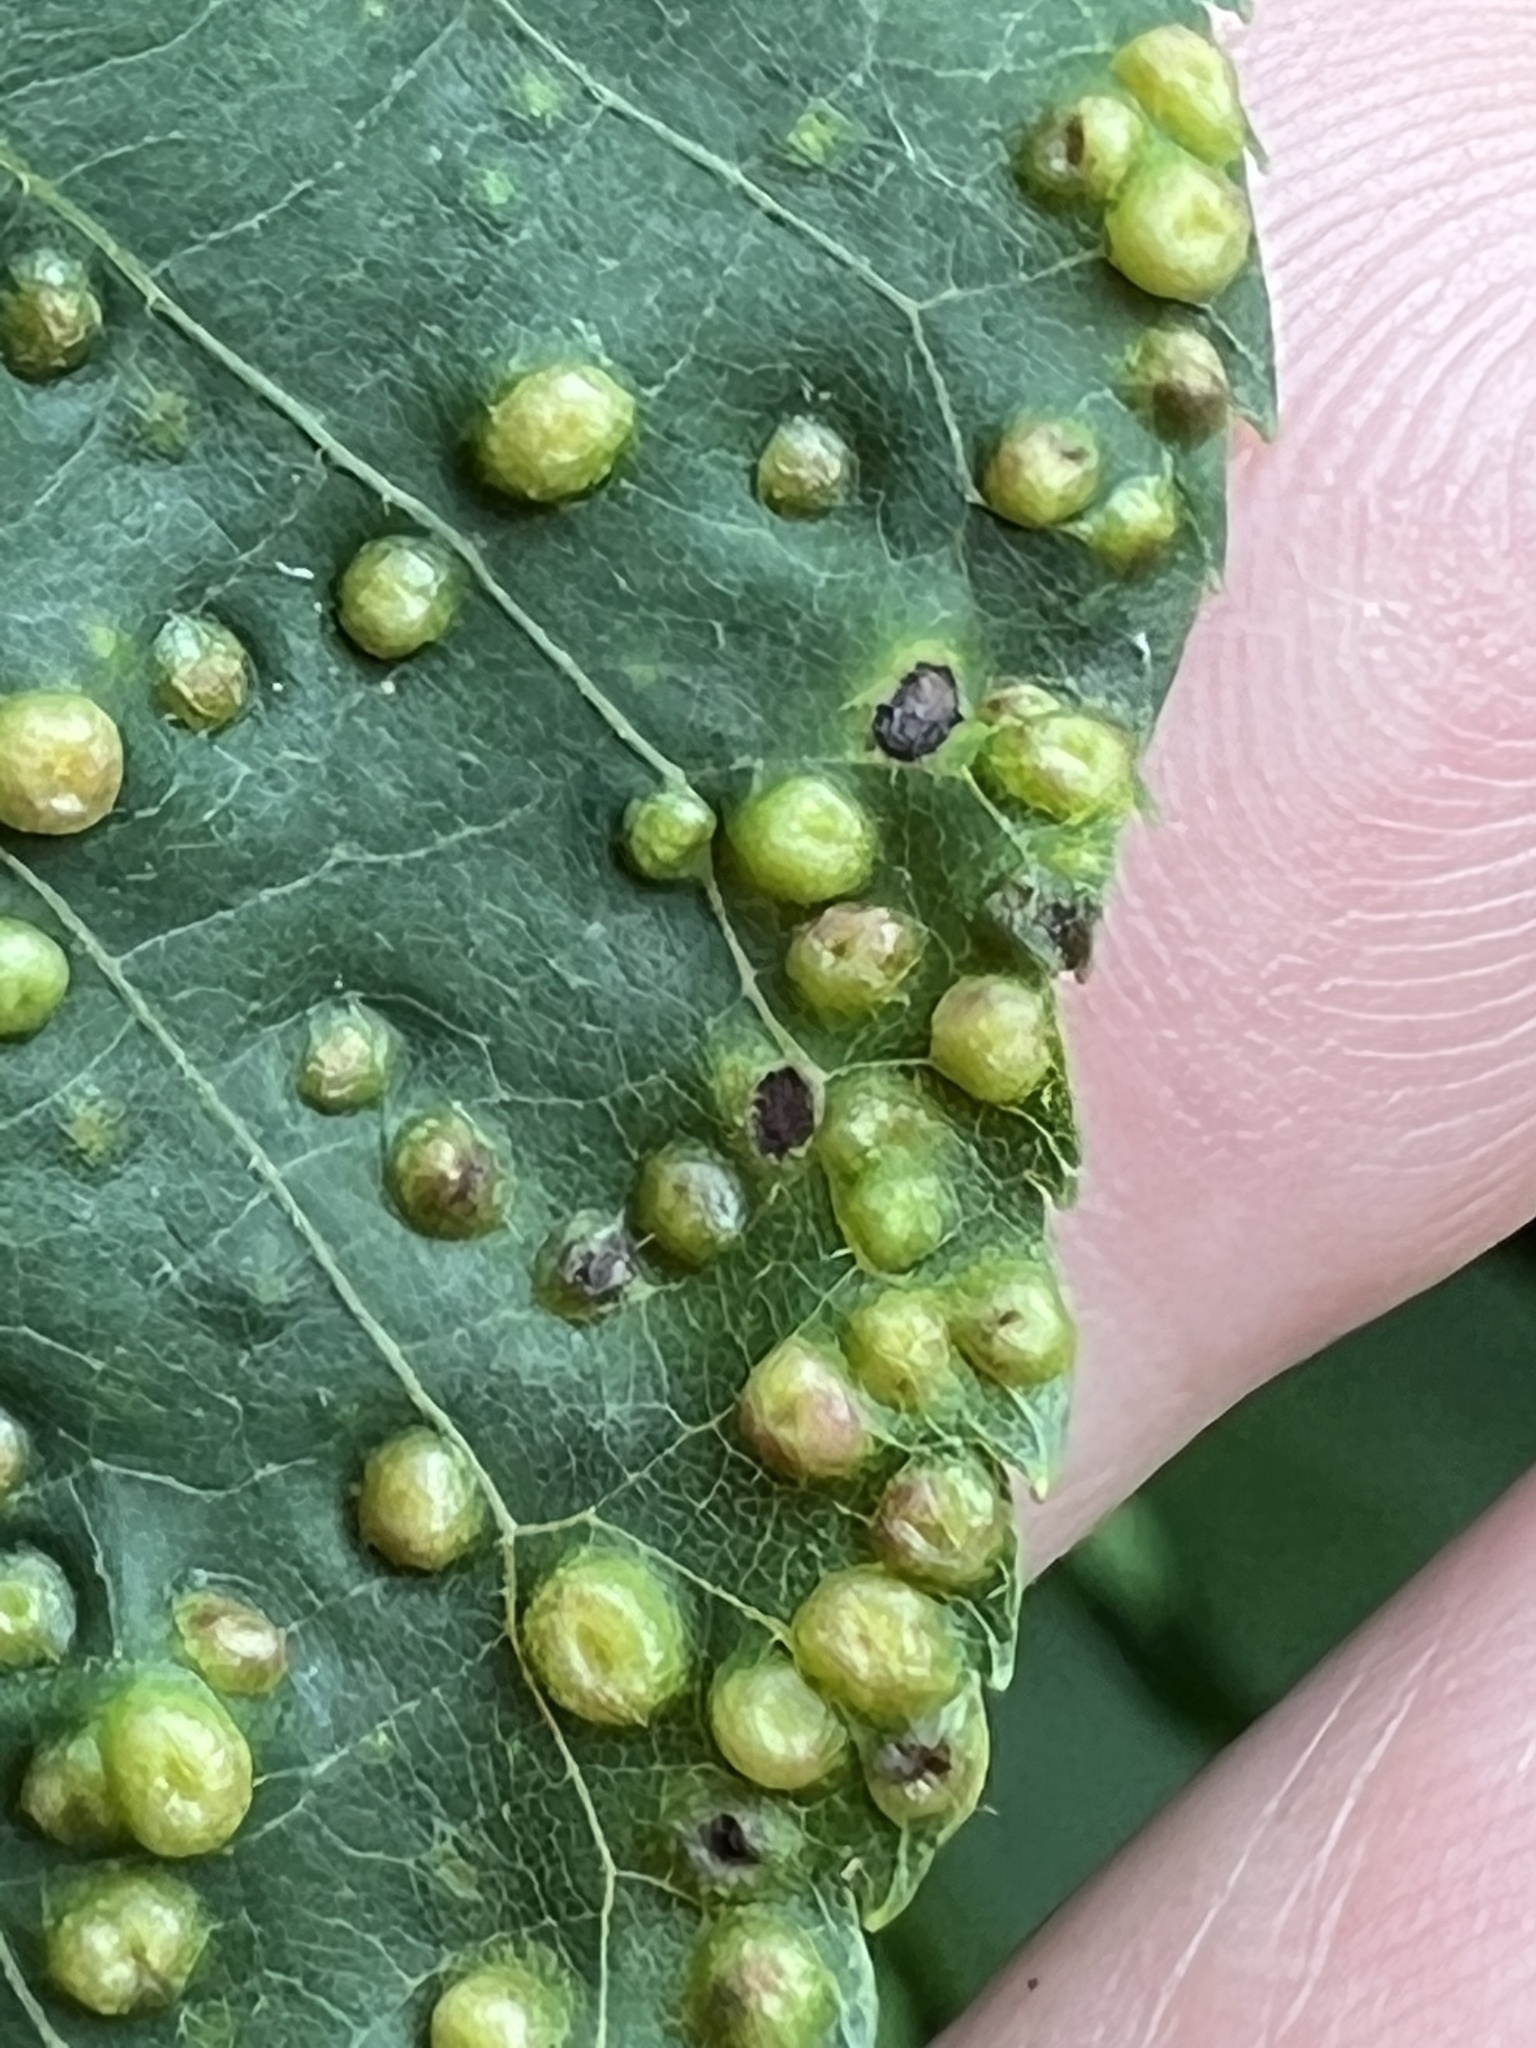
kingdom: Animalia
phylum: Arthropoda
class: Insecta
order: Hemiptera
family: Phylloxeridae
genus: Phylloxera
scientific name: Phylloxera caryae-semen
